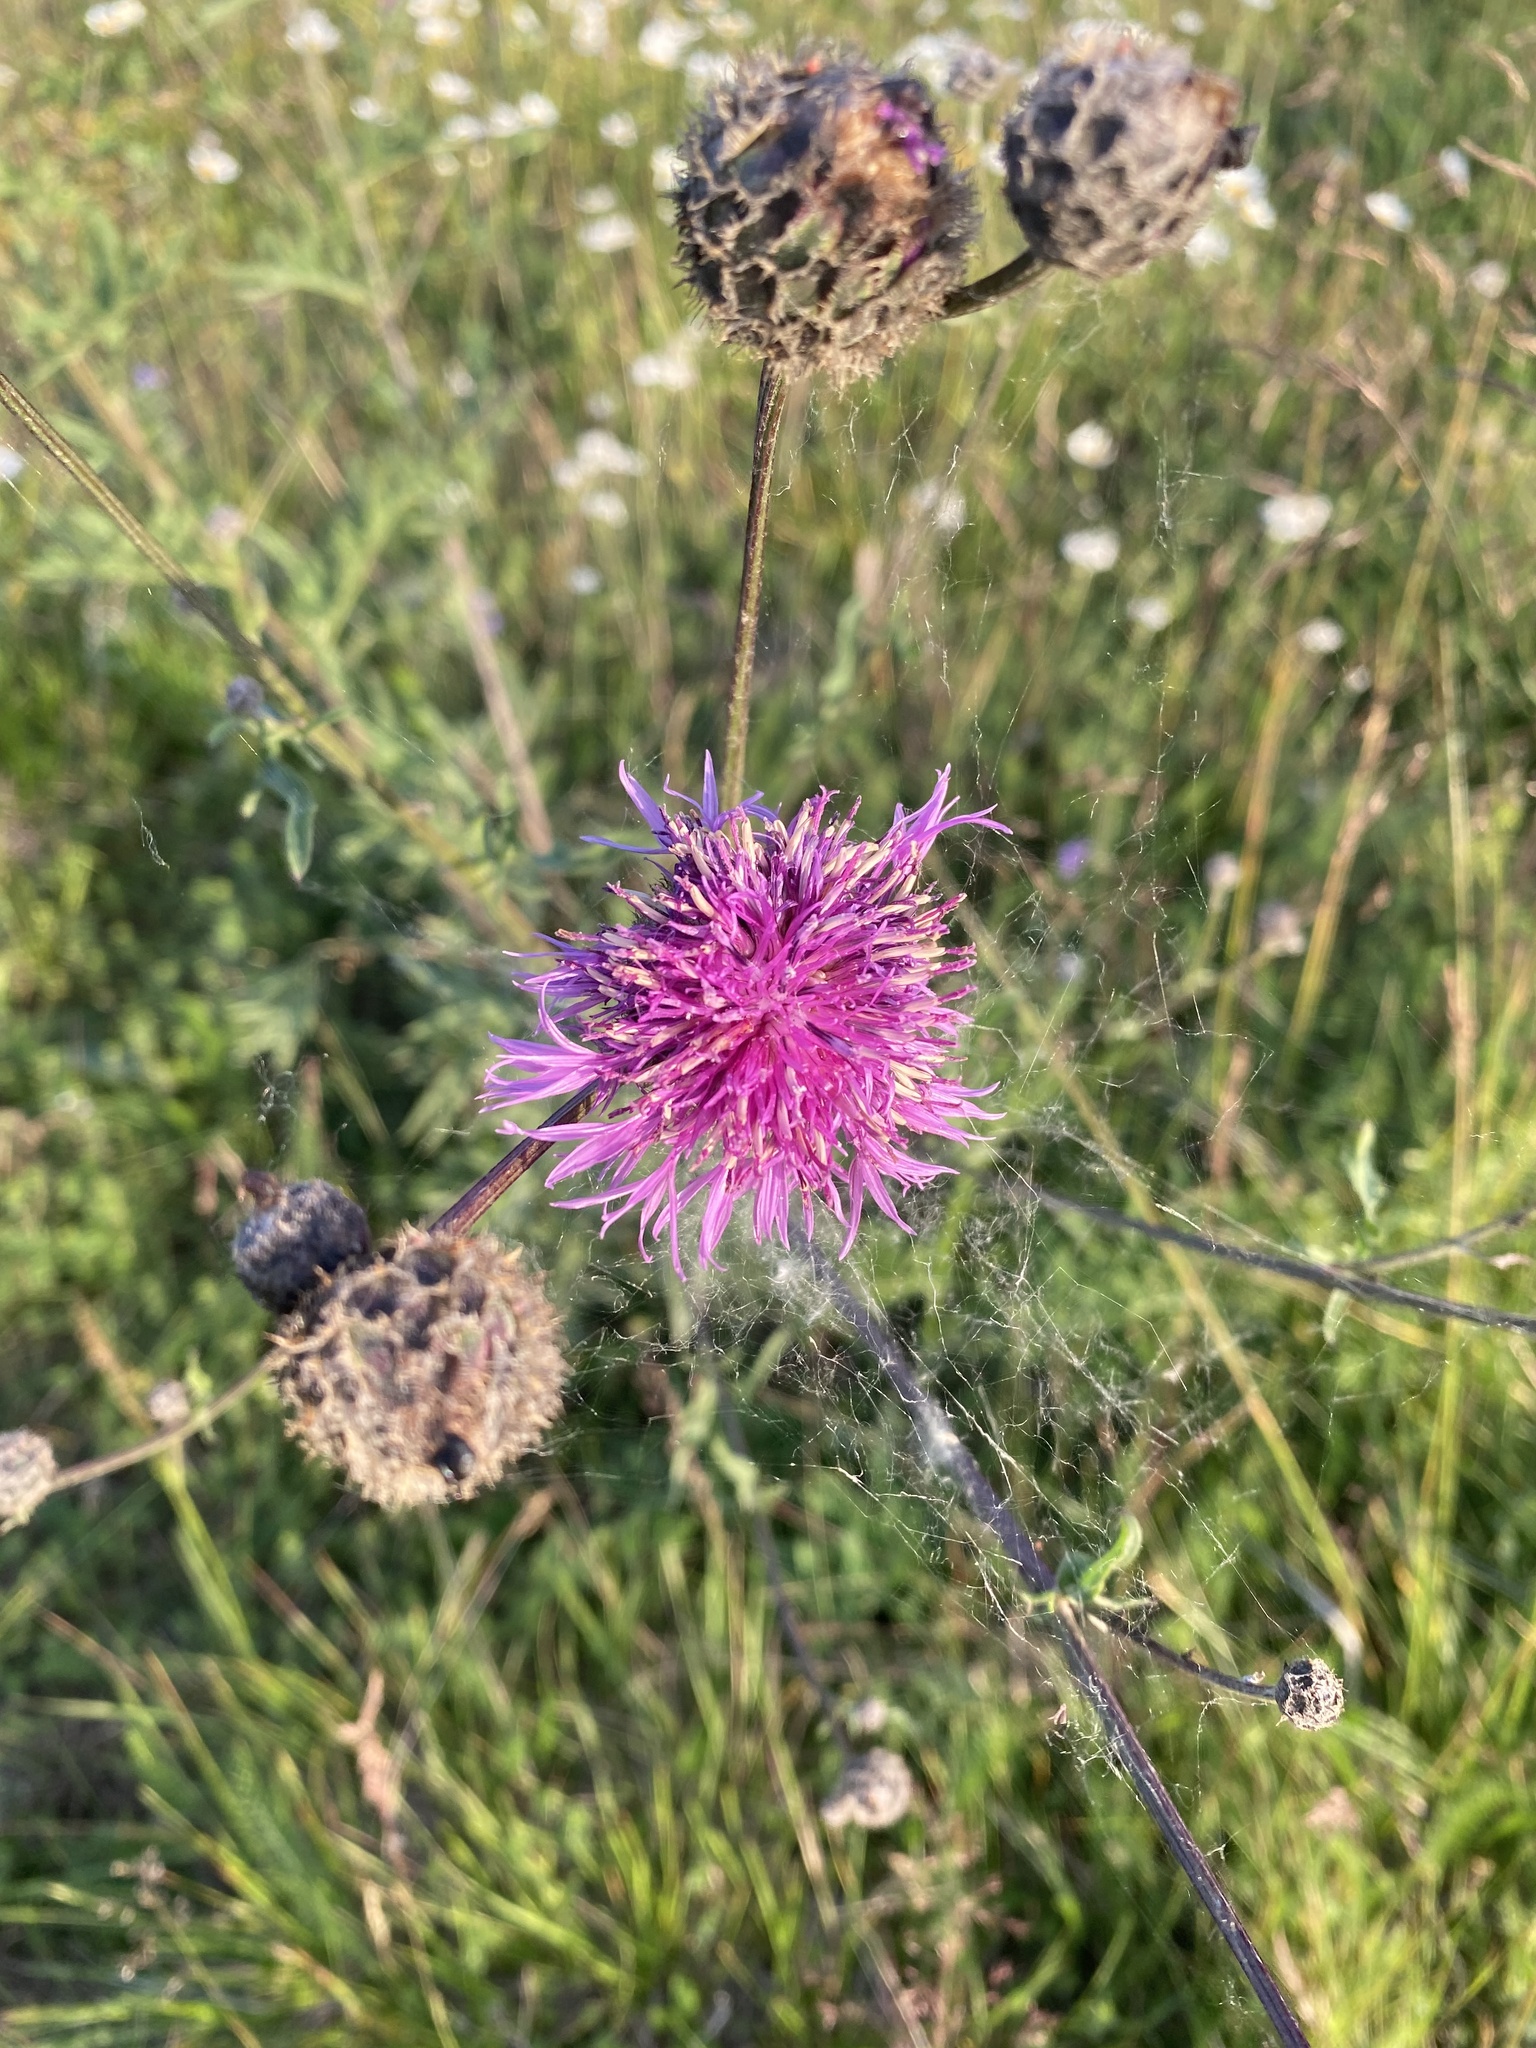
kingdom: Plantae
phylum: Tracheophyta
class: Magnoliopsida
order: Asterales
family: Asteraceae
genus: Centaurea
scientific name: Centaurea scabiosa
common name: Greater knapweed
